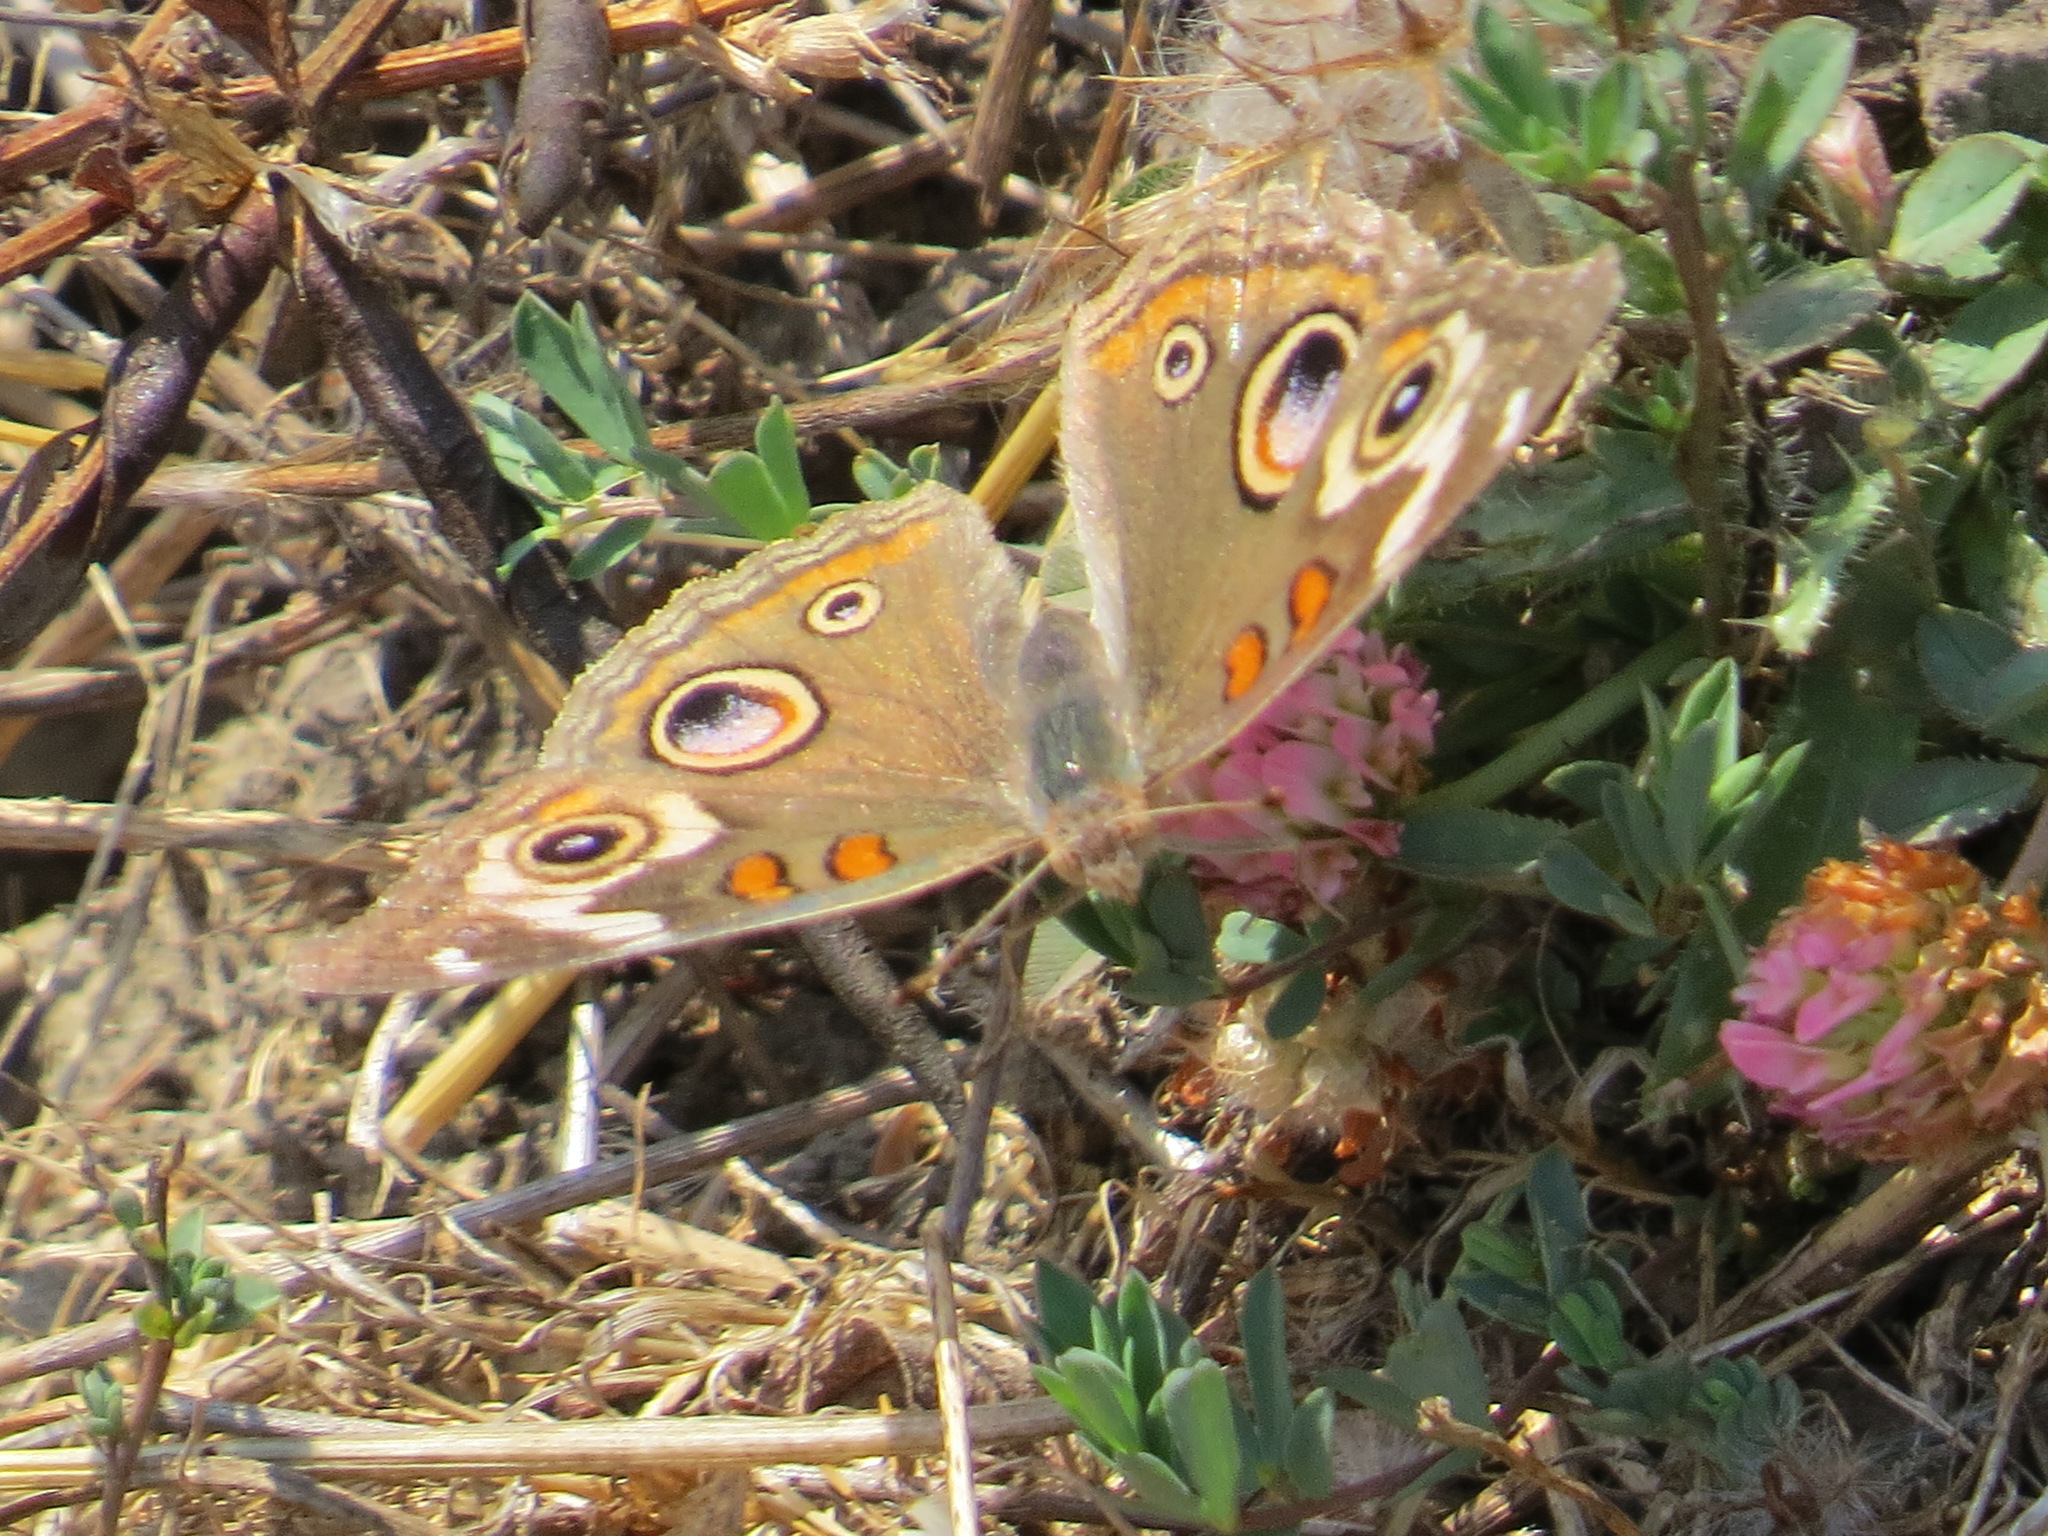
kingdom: Animalia
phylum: Arthropoda
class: Insecta
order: Lepidoptera
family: Nymphalidae
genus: Junonia
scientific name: Junonia grisea
